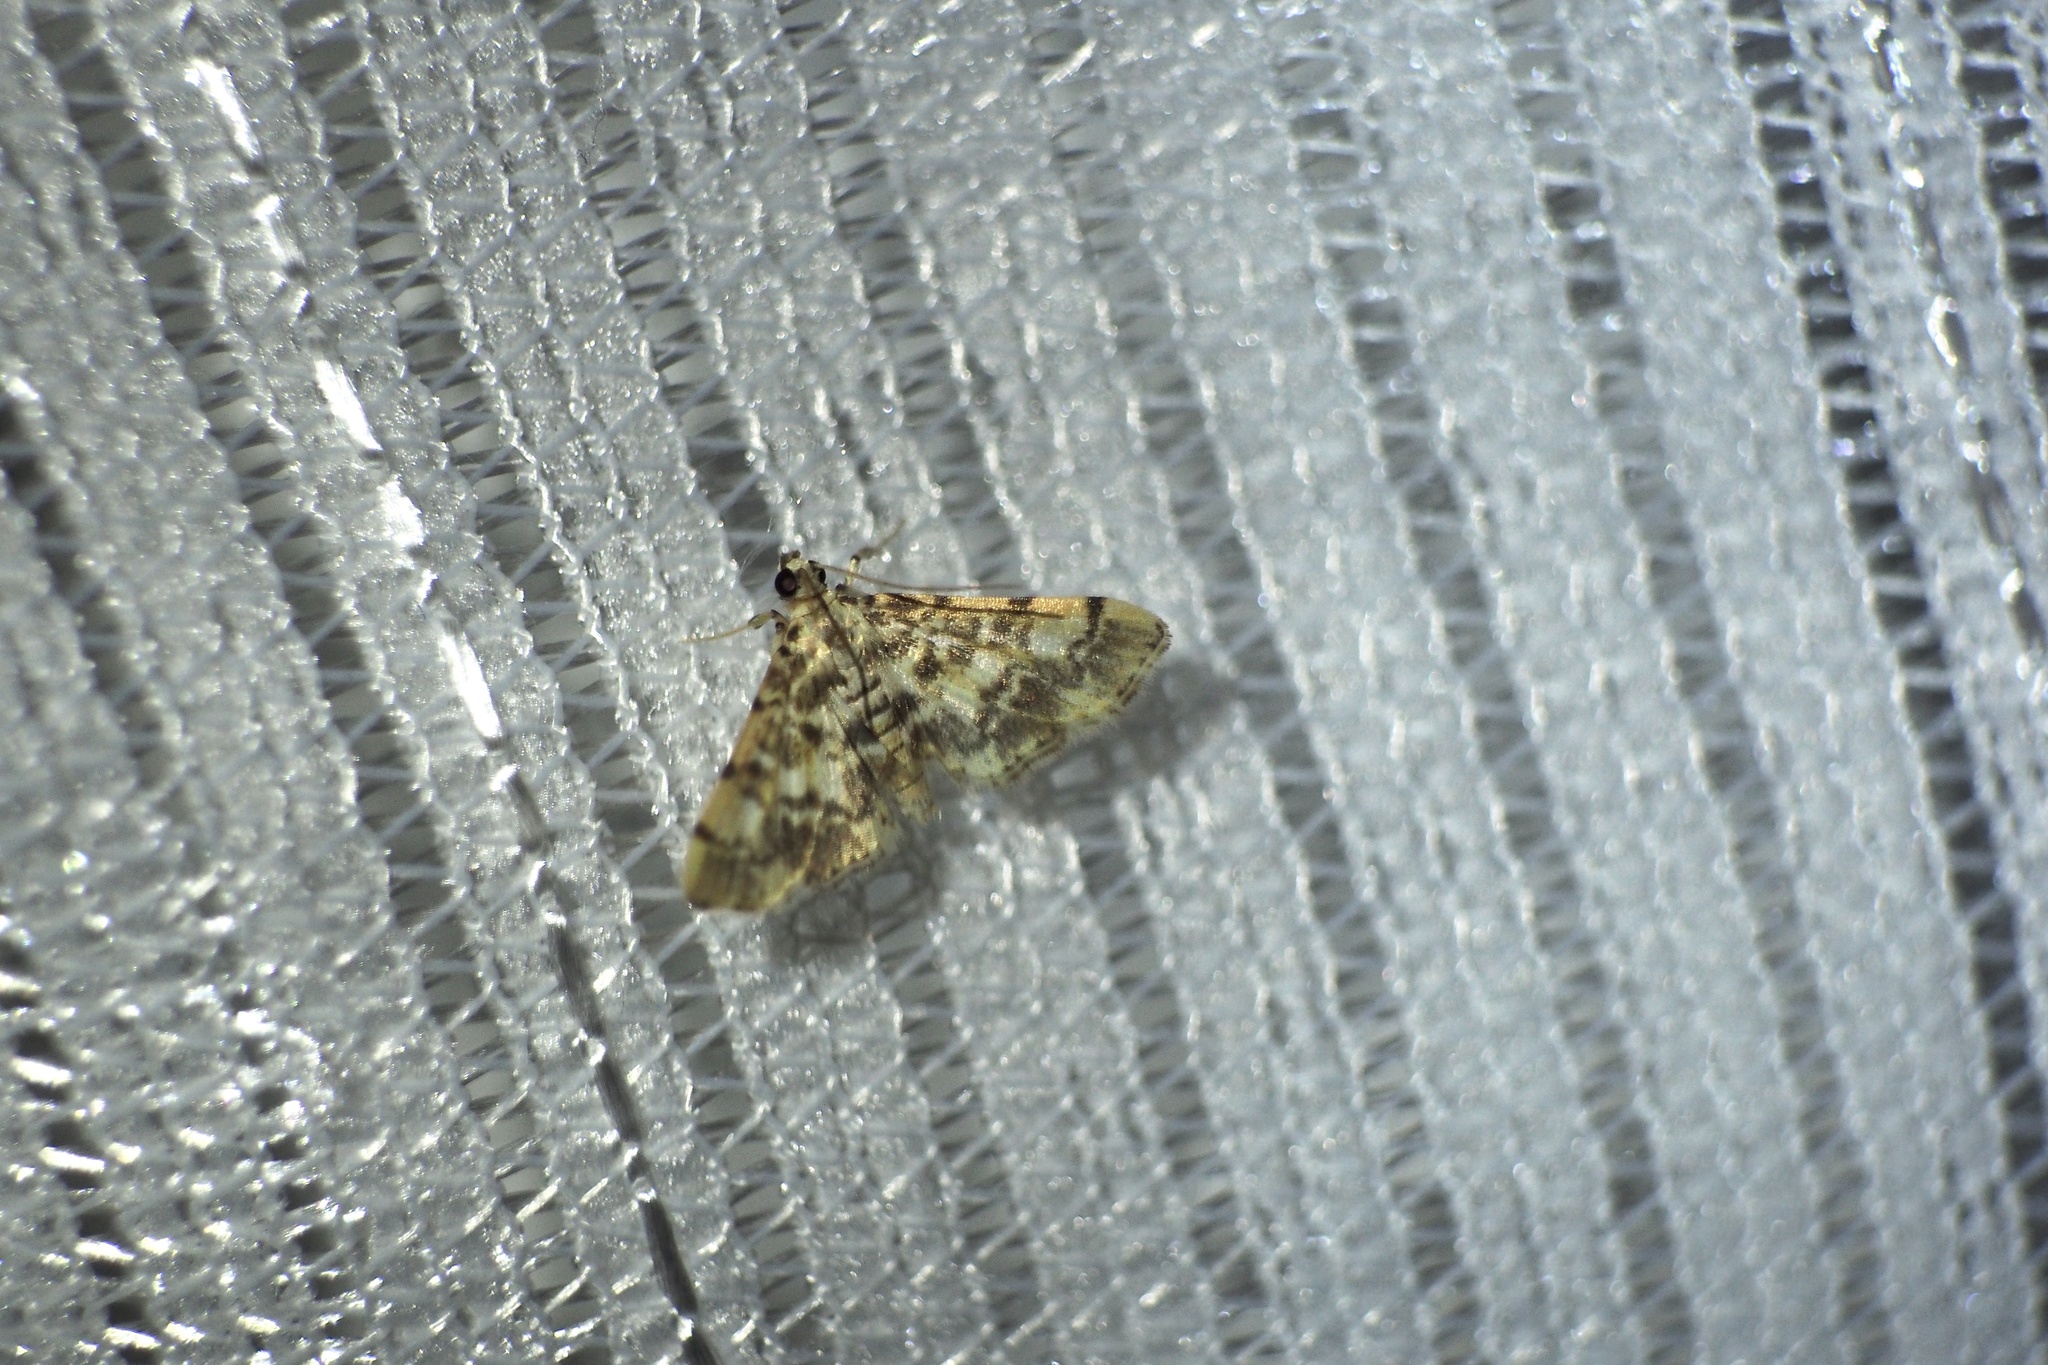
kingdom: Animalia
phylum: Arthropoda
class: Insecta
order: Lepidoptera
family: Crambidae
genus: Lamprosema
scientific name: Lamprosema commixta
